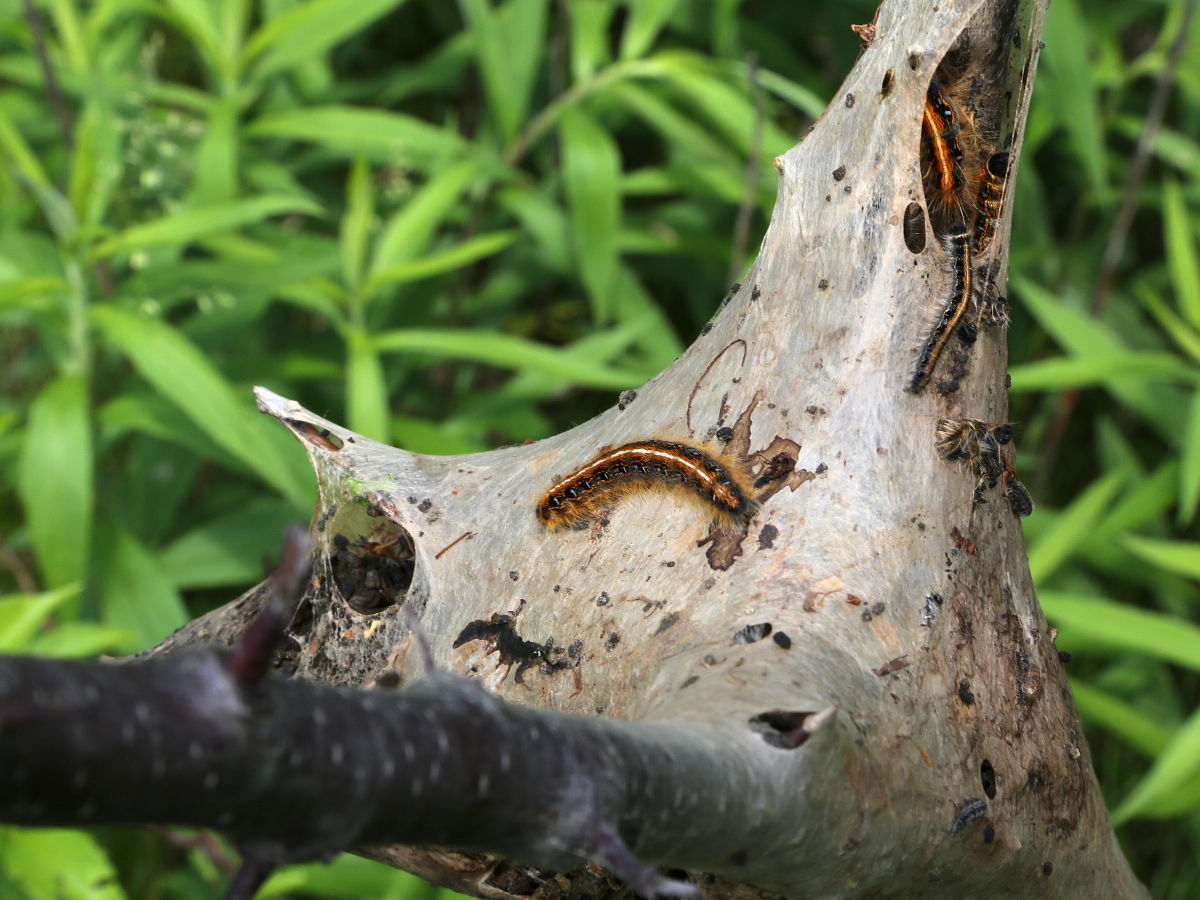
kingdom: Animalia
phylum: Arthropoda
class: Insecta
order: Lepidoptera
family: Lasiocampidae
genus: Malacosoma
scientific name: Malacosoma americana
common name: Eastern tent caterpillar moth
